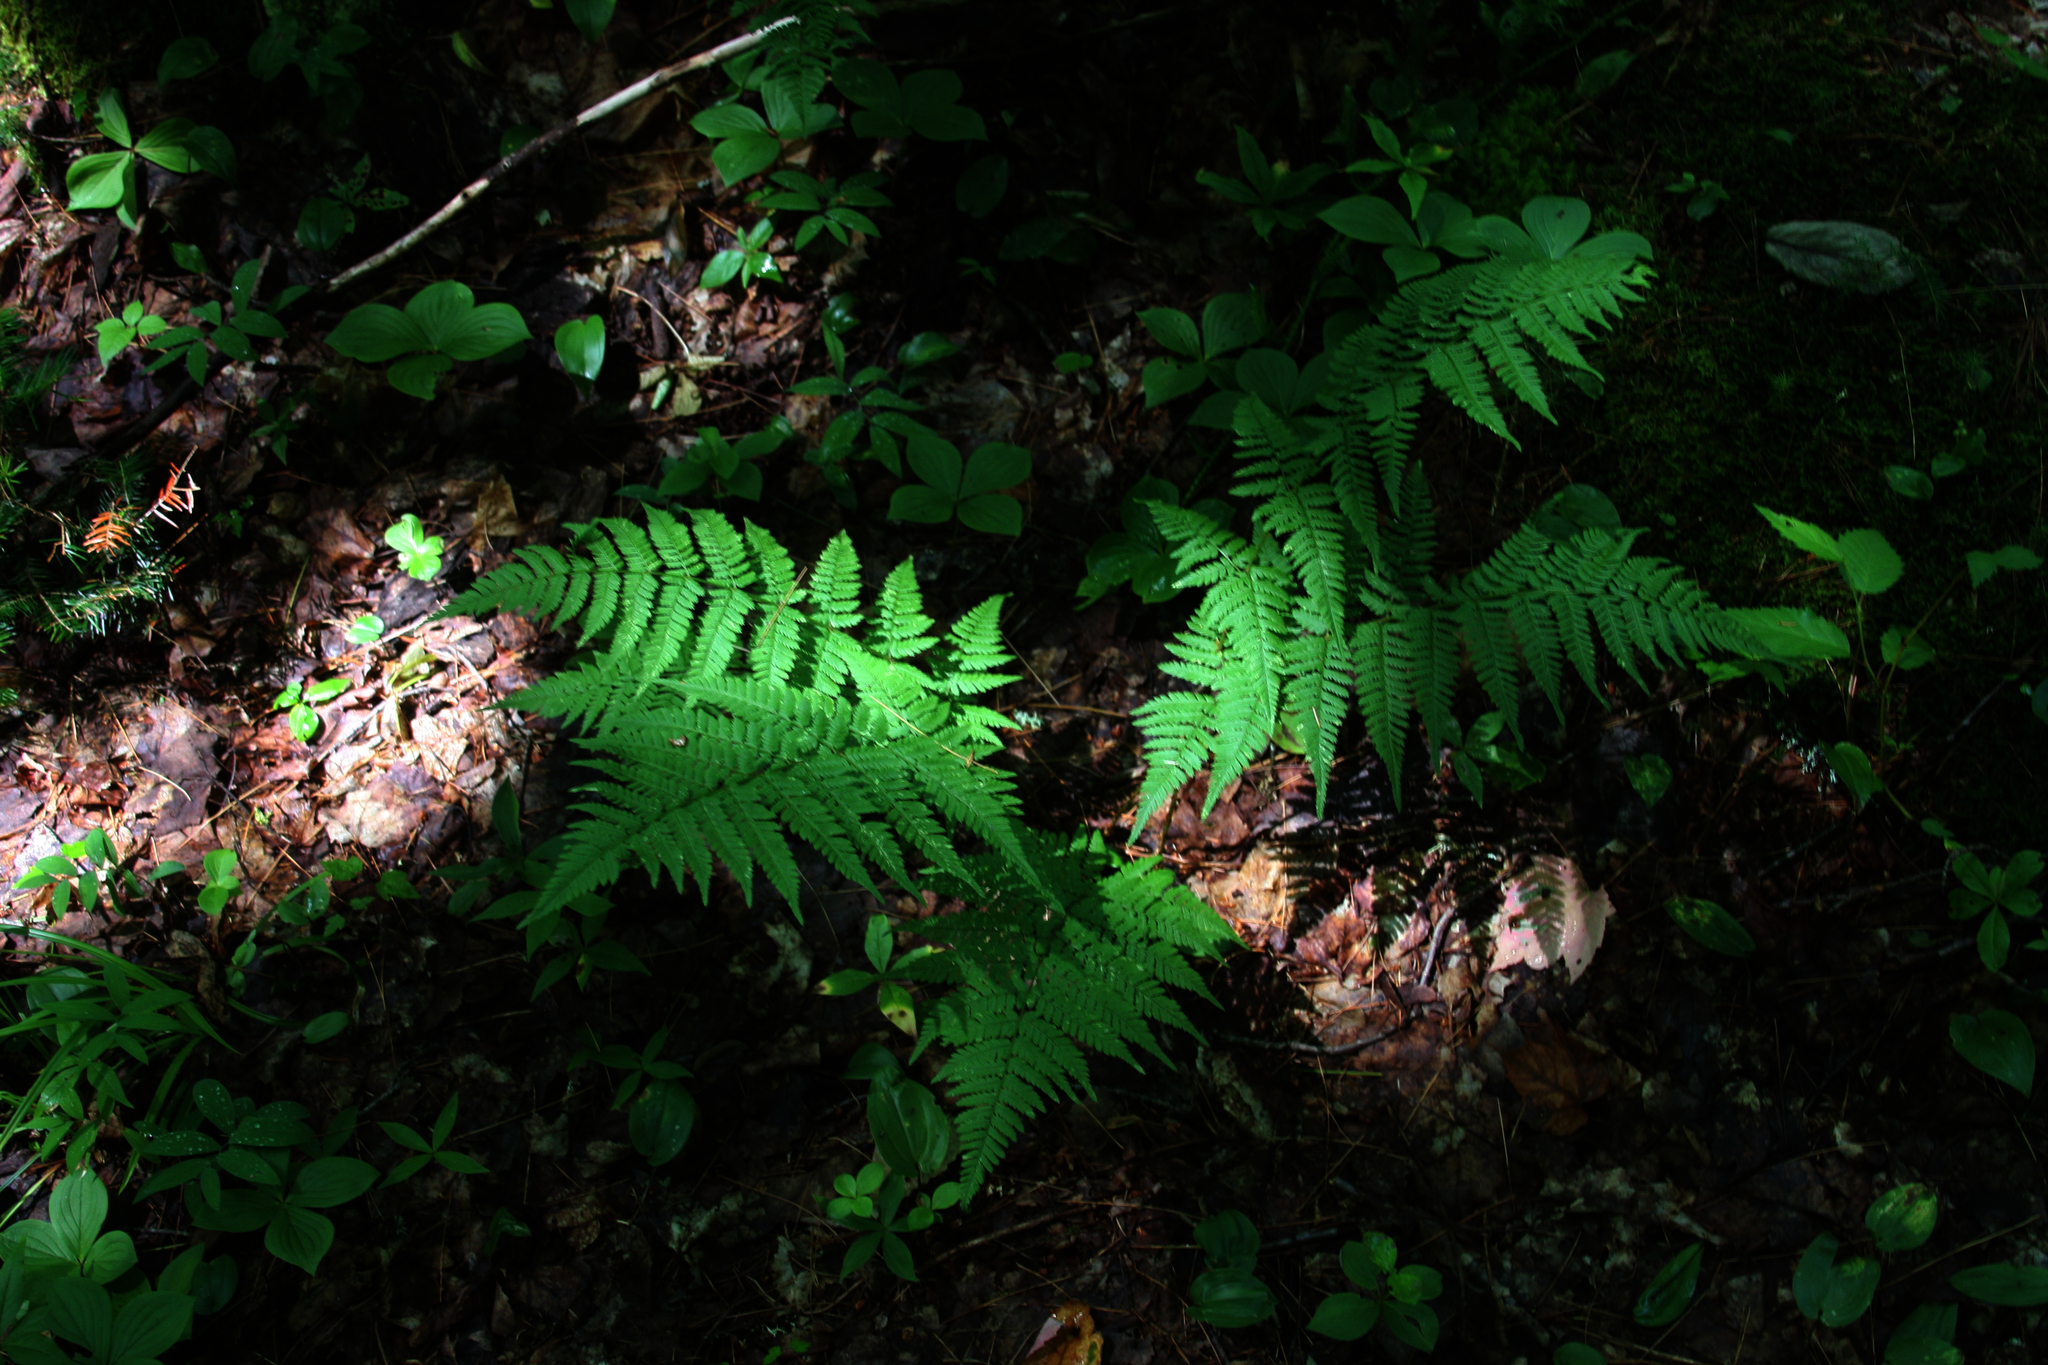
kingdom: Plantae
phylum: Tracheophyta
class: Polypodiopsida
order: Polypodiales
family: Dryopteridaceae
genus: Dryopteris
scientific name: Dryopteris carthusiana
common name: Narrow buckler-fern
